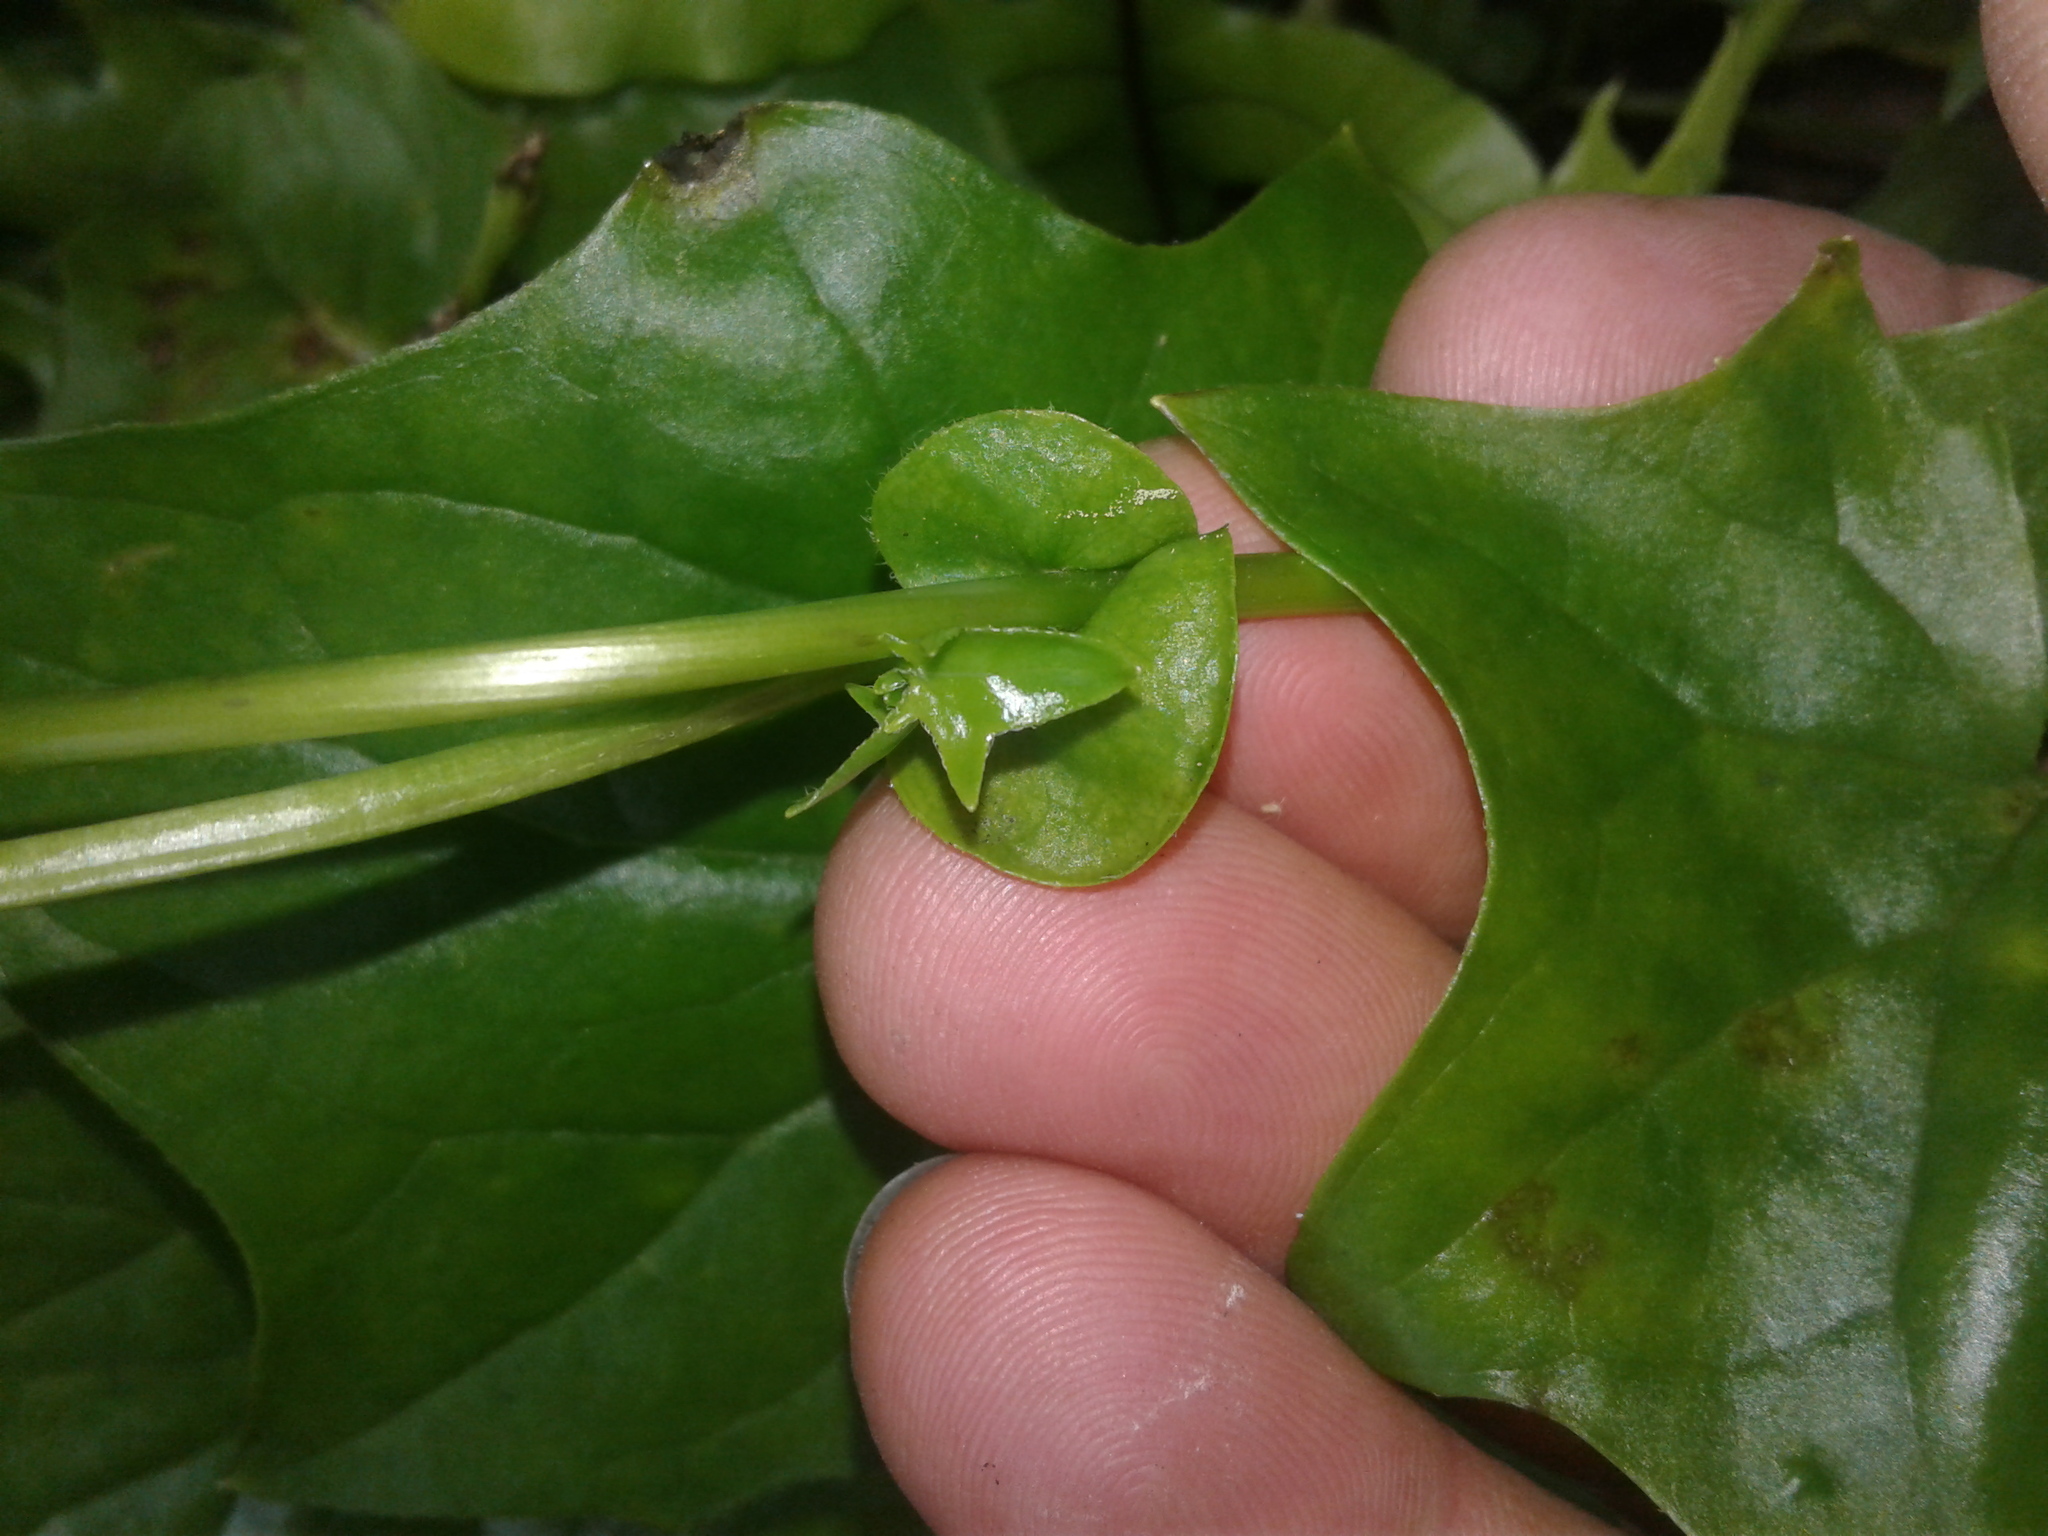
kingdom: Plantae
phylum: Tracheophyta
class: Magnoliopsida
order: Asterales
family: Asteraceae
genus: Delairea
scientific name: Delairea odorata
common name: Cape-ivy
